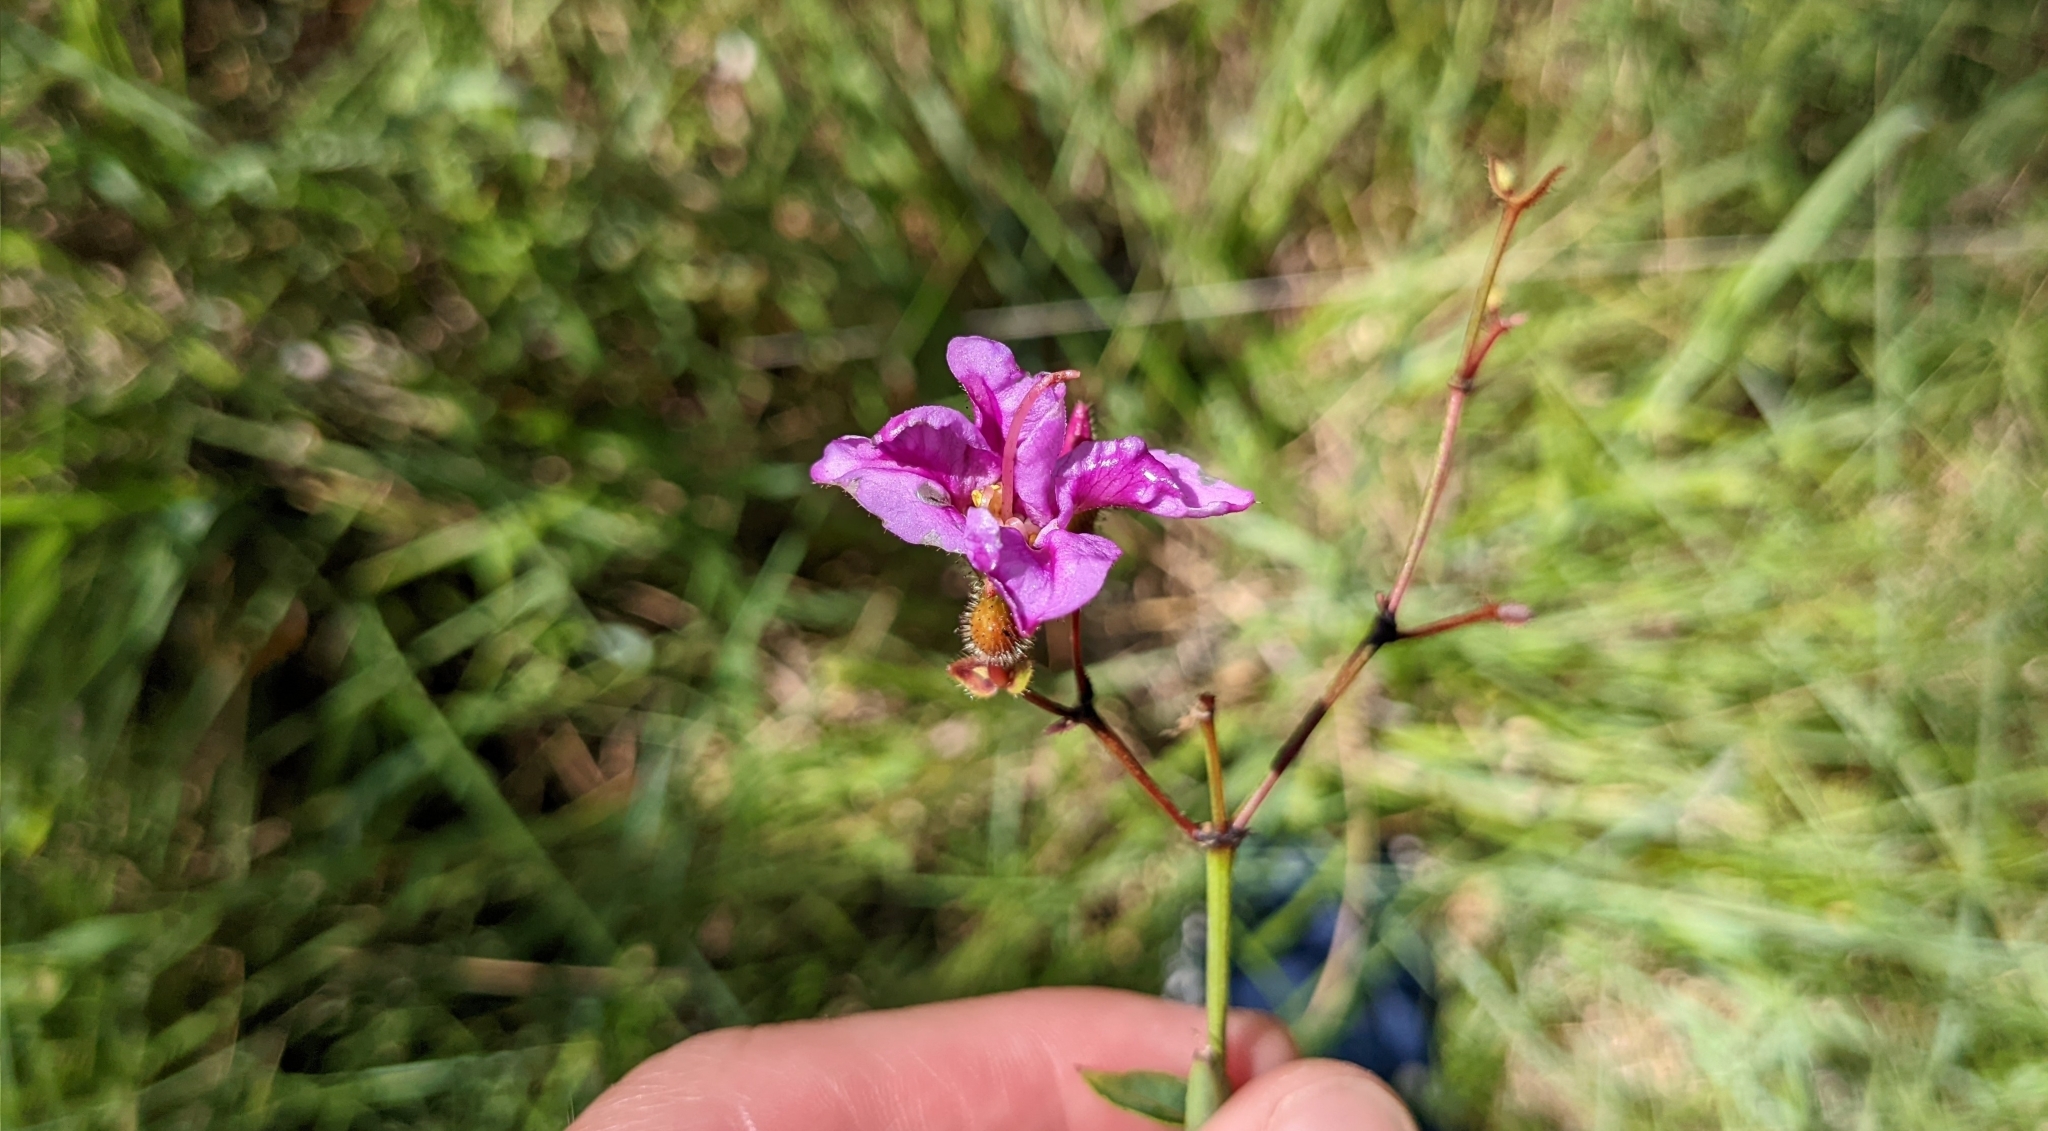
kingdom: Plantae
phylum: Tracheophyta
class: Magnoliopsida
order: Myrtales
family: Melastomataceae
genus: Rhexia
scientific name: Rhexia alifanus
